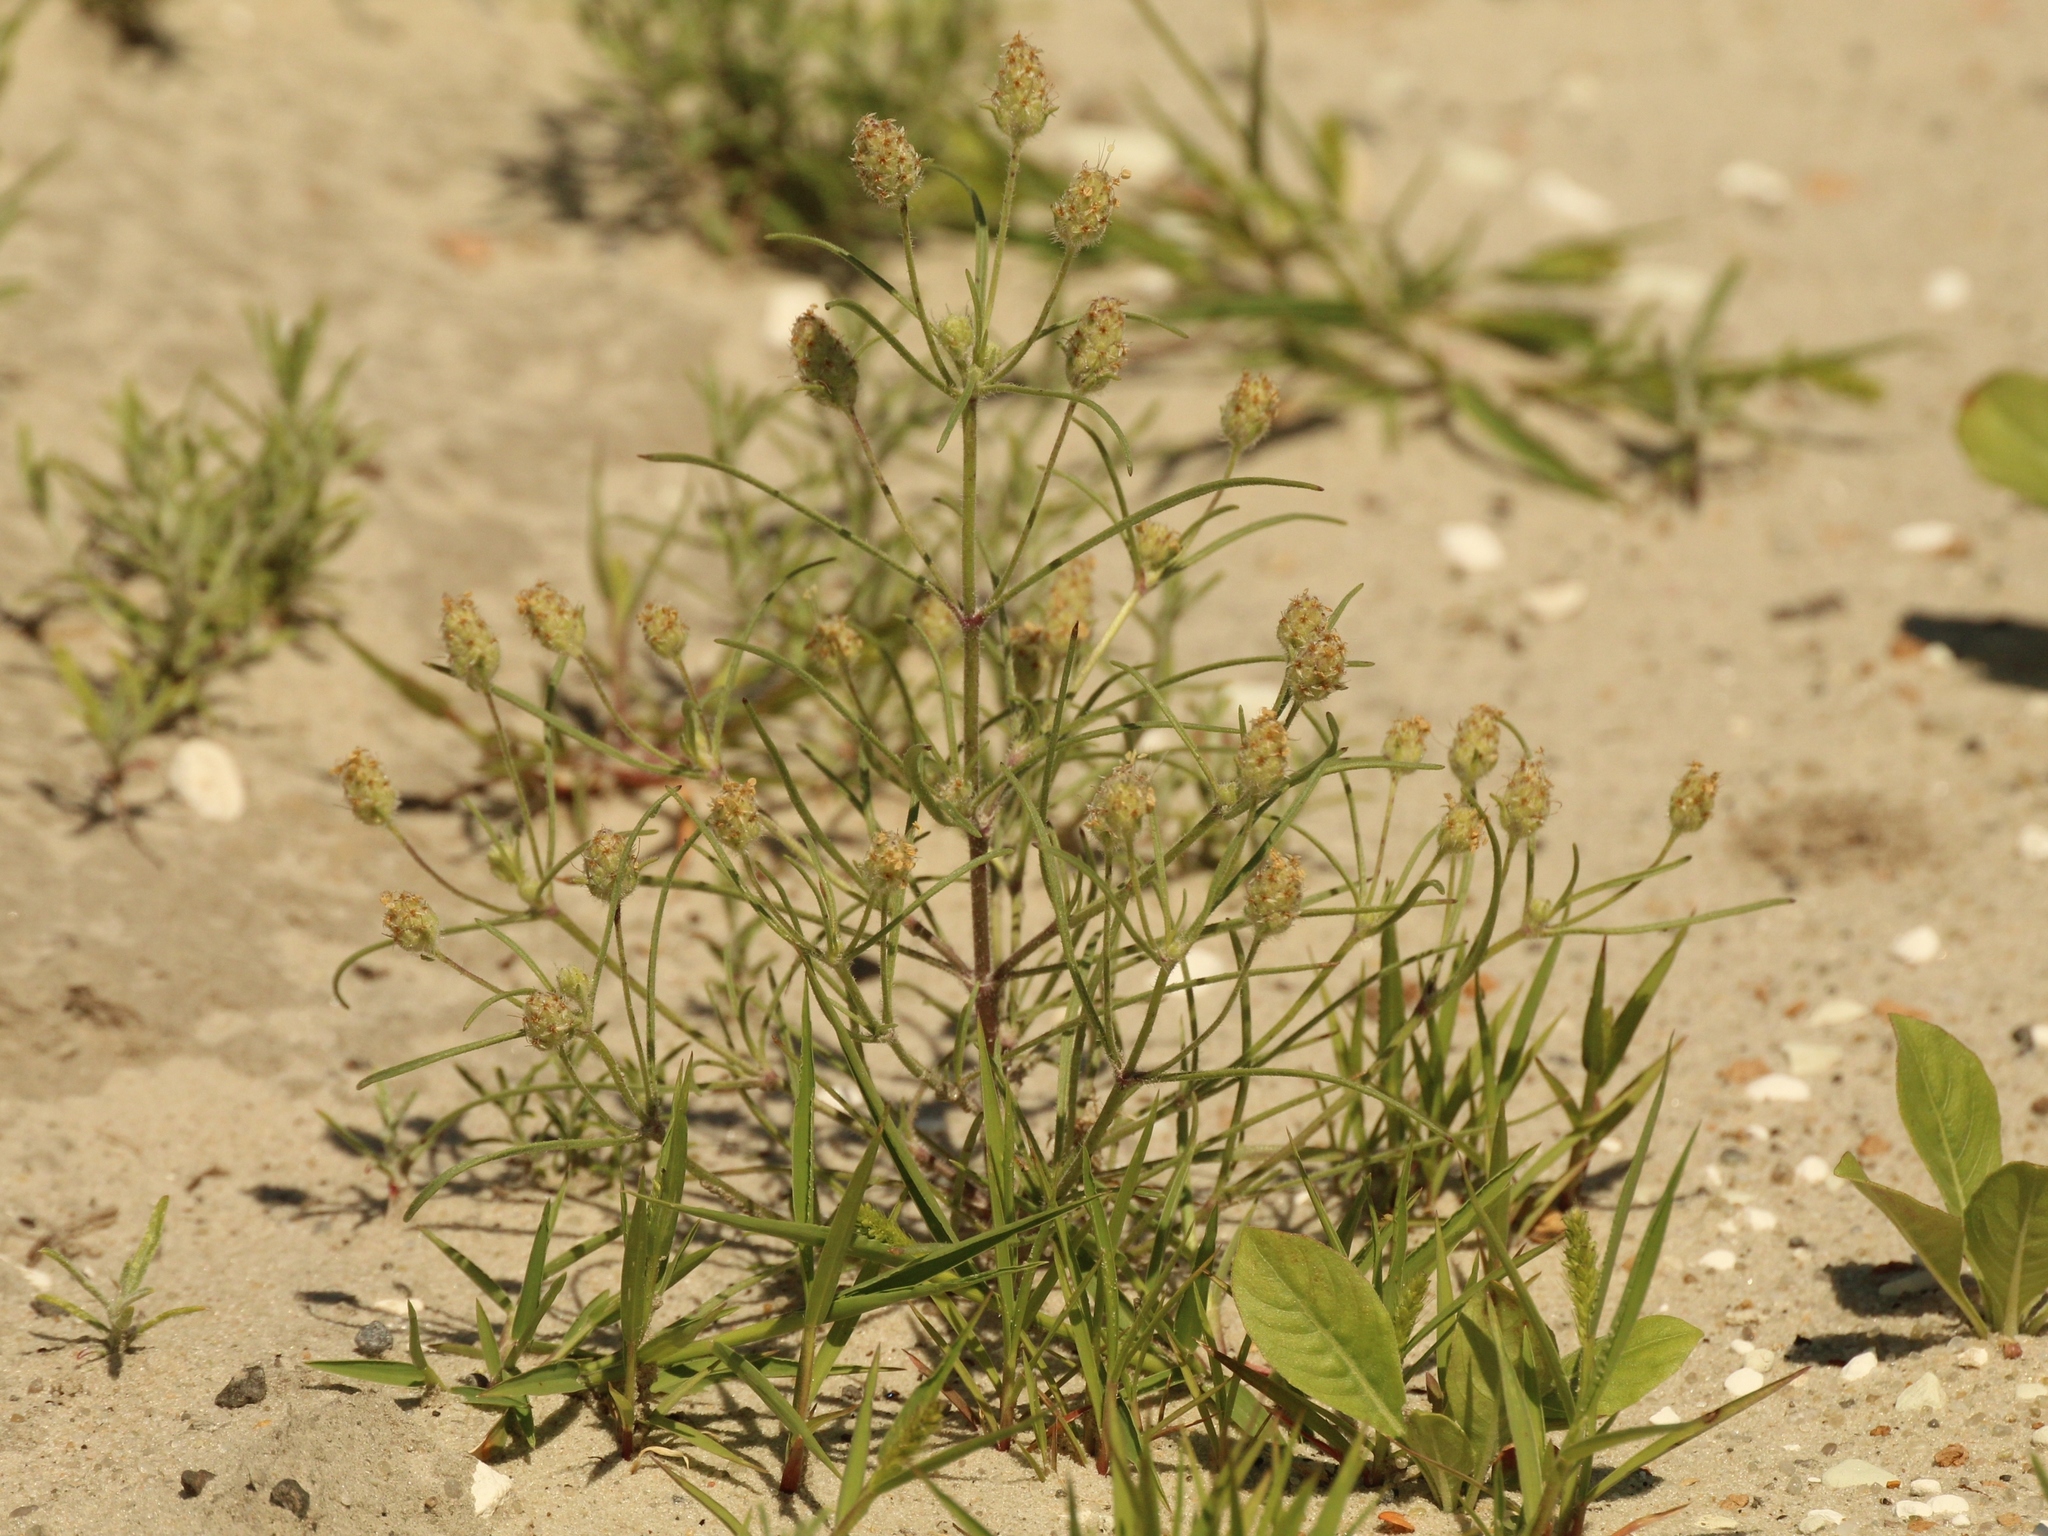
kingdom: Plantae
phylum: Tracheophyta
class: Magnoliopsida
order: Lamiales
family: Plantaginaceae
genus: Plantago
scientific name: Plantago arenaria
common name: Branched plantain
